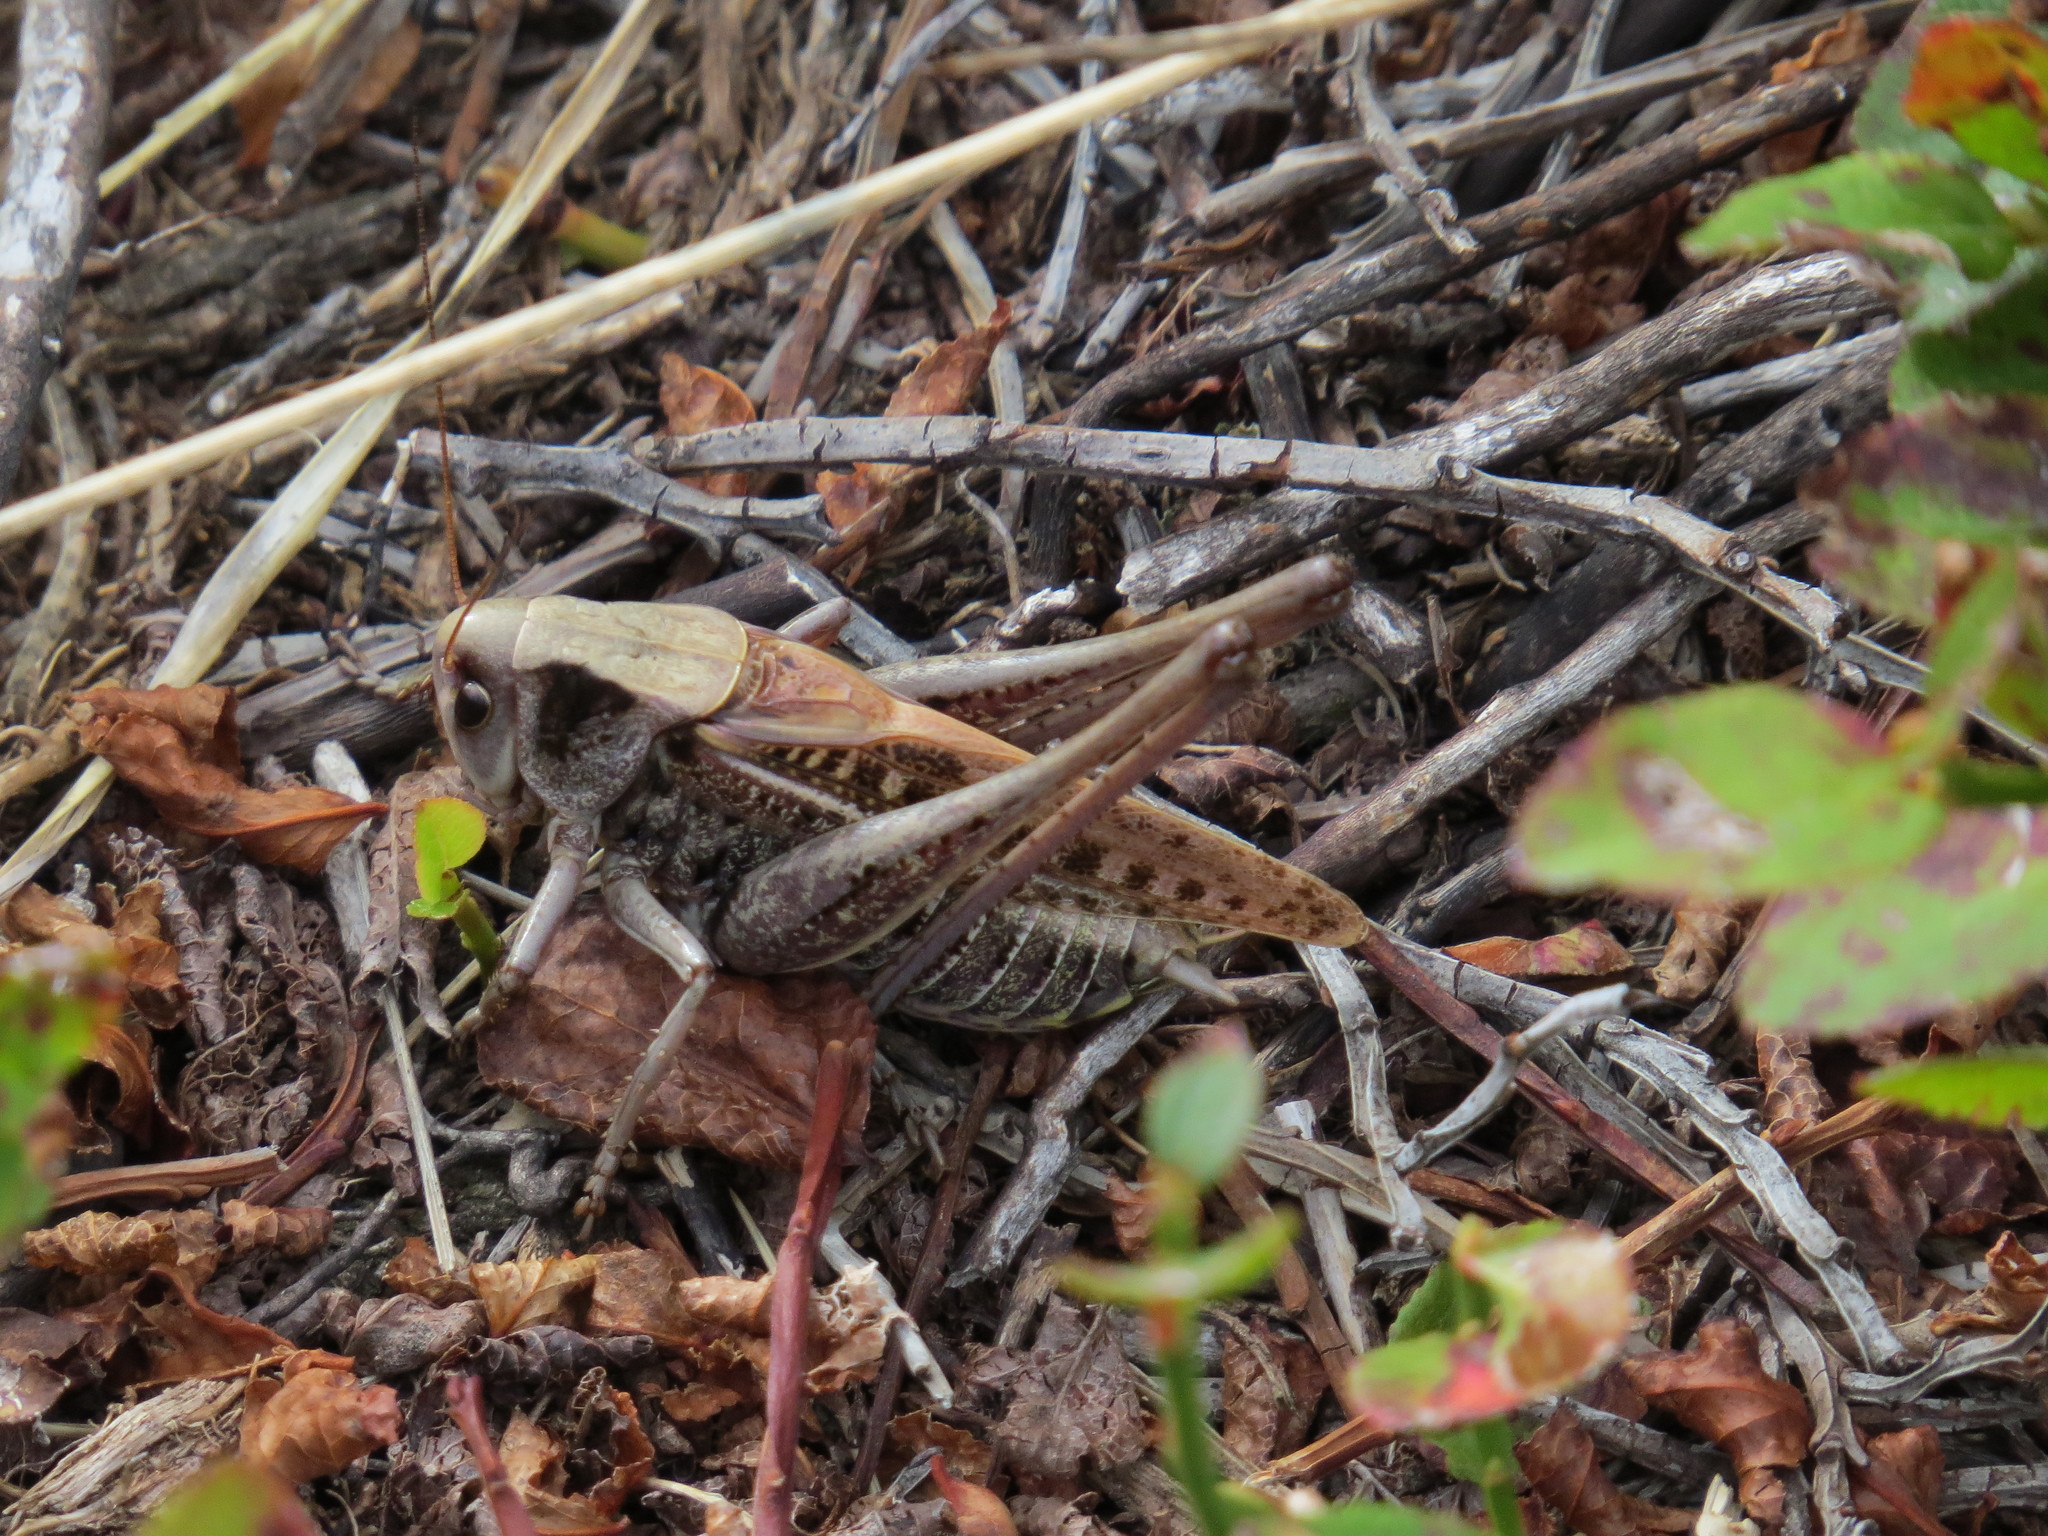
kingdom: Animalia
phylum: Arthropoda
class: Insecta
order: Orthoptera
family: Tettigoniidae
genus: Decticus
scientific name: Decticus verrucivorus
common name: Wart-biter
